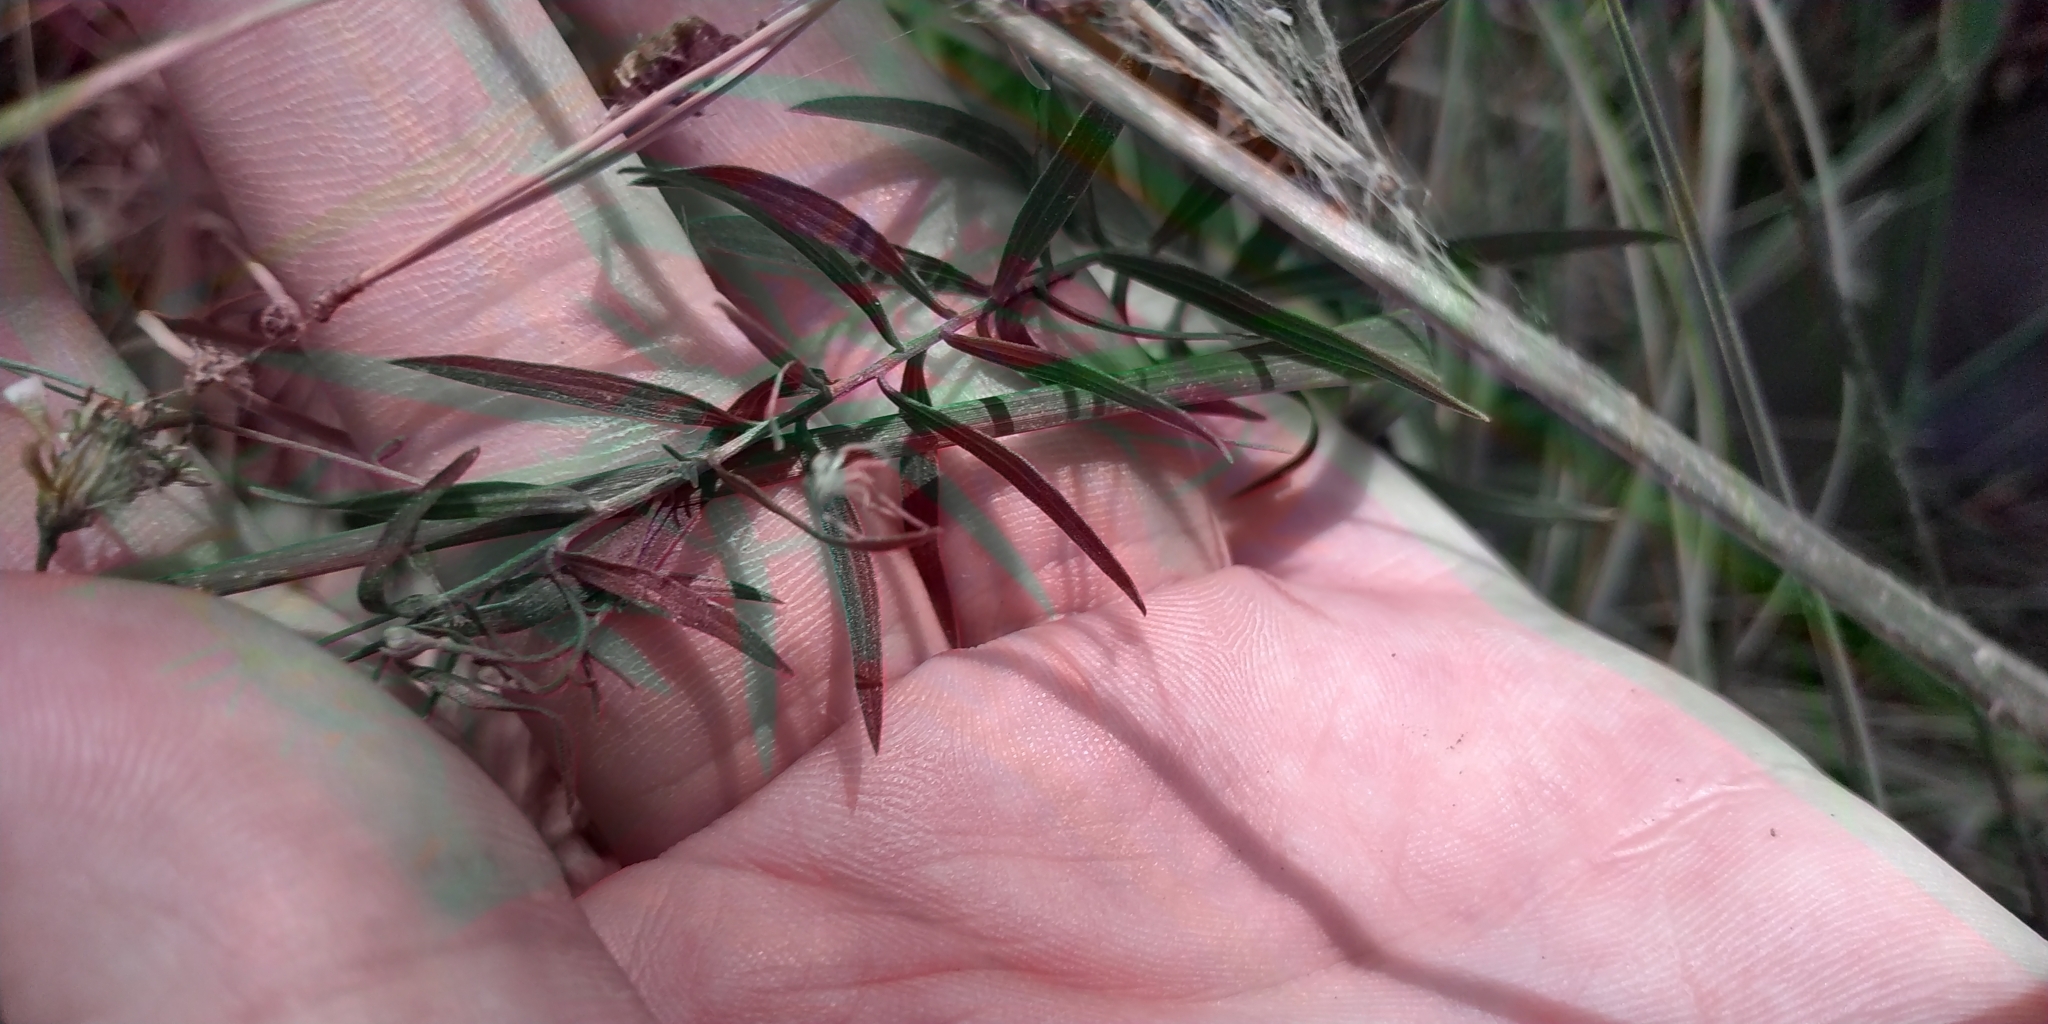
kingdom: Plantae
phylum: Tracheophyta
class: Magnoliopsida
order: Asterales
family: Asteraceae
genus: Galatella
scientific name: Galatella sedifolia
